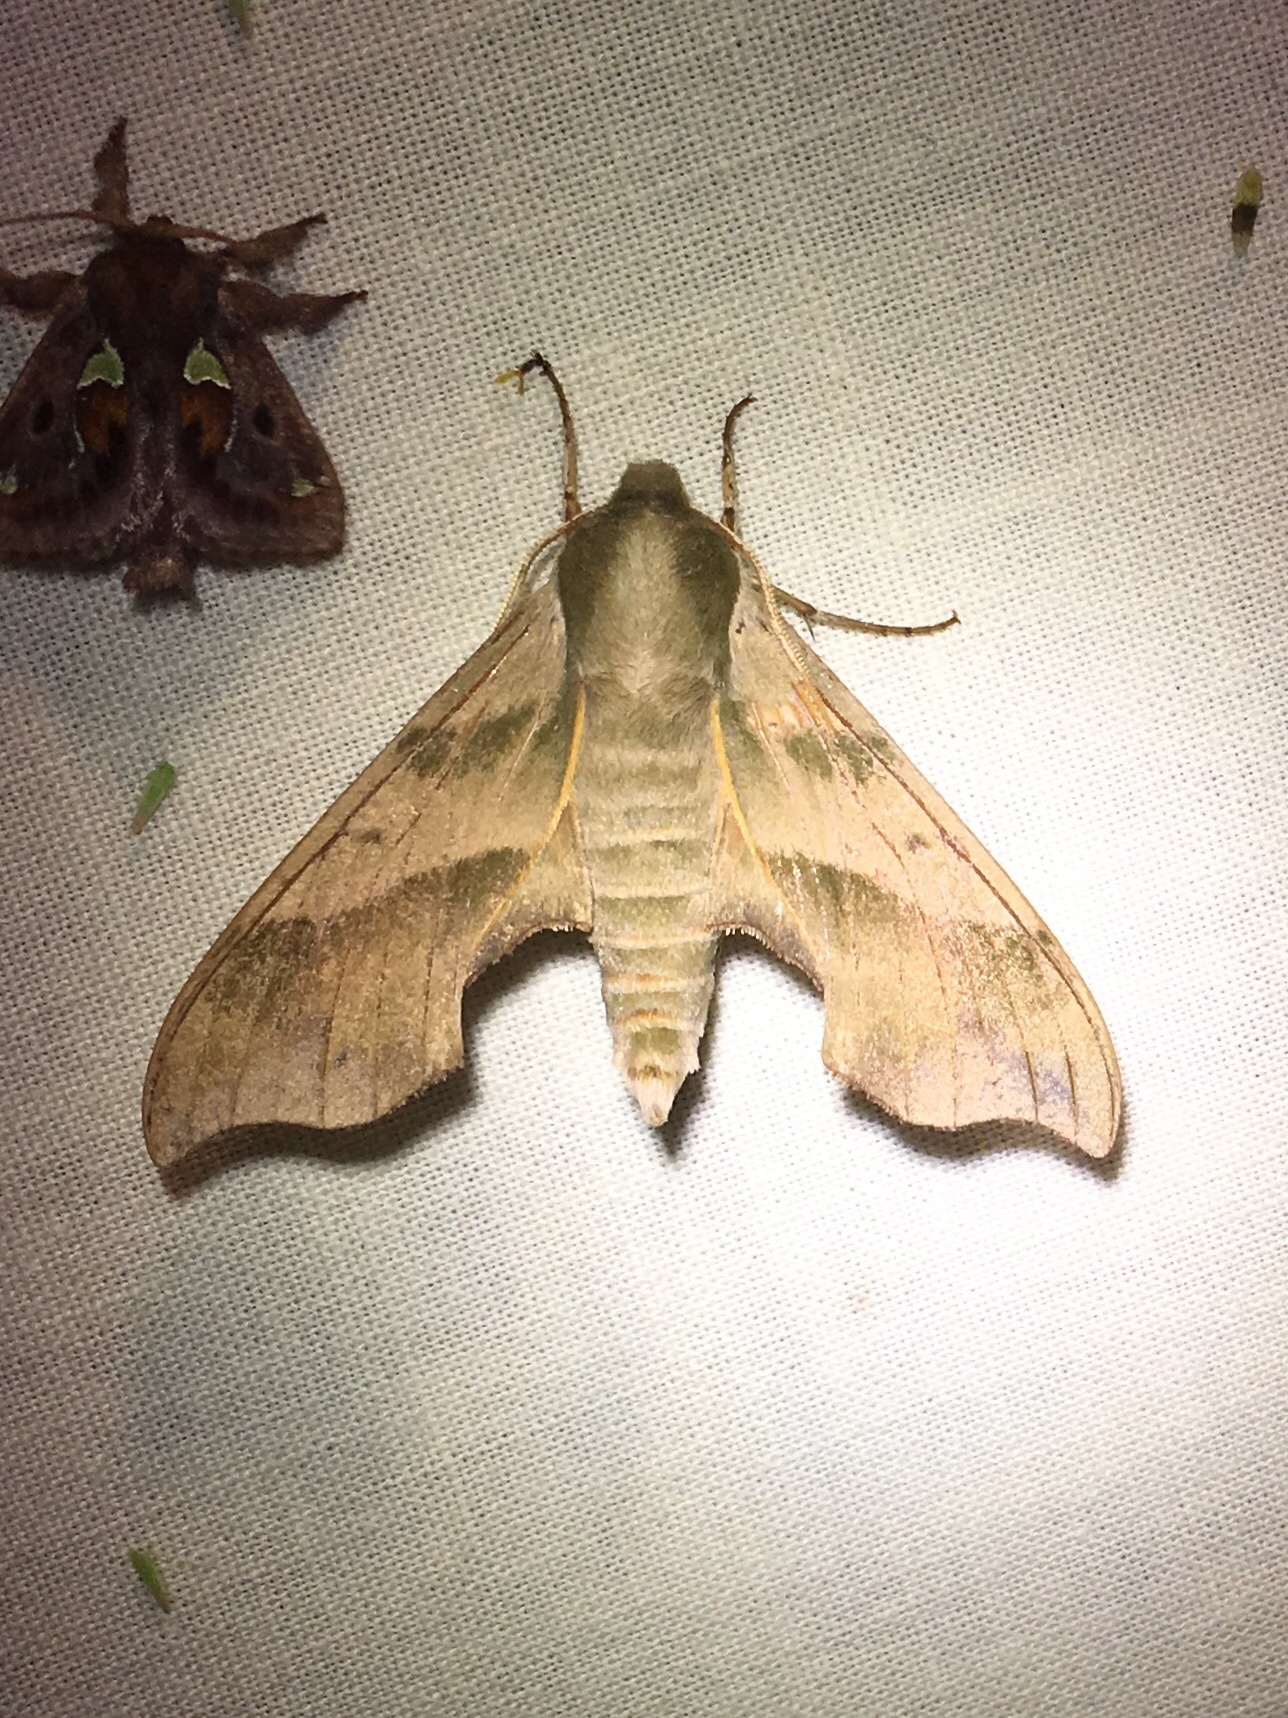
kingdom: Animalia
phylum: Arthropoda
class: Insecta
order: Lepidoptera
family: Sphingidae
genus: Darapsa
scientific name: Darapsa myron
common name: Hog sphinx
